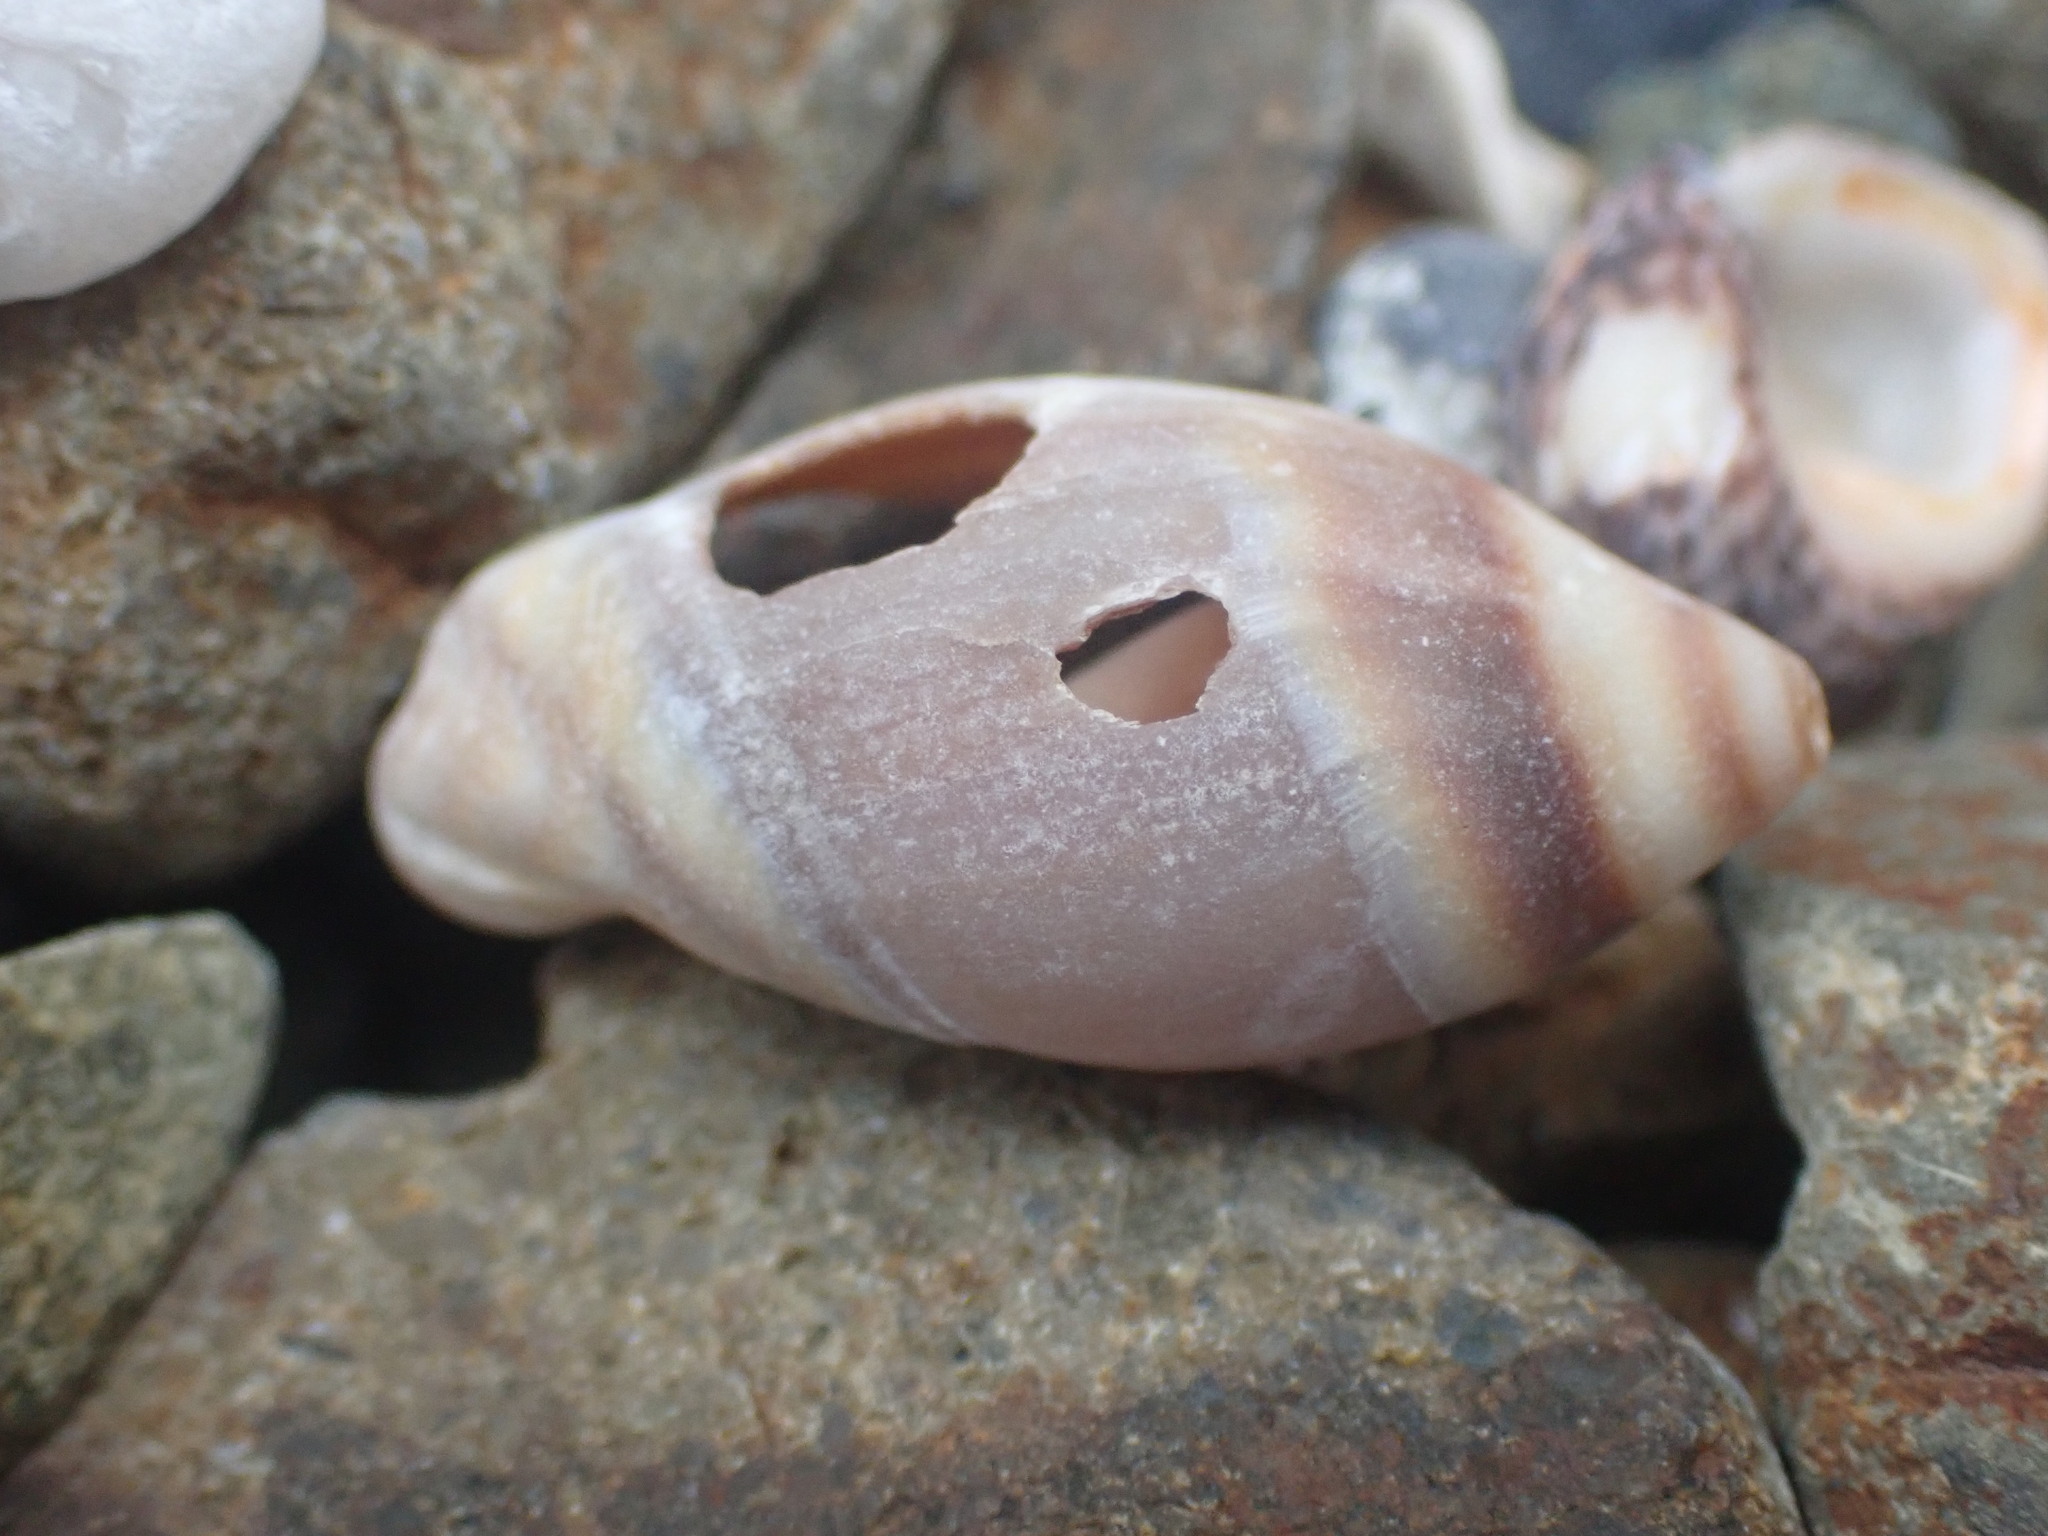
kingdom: Animalia
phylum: Mollusca
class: Gastropoda
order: Neogastropoda
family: Ancillariidae
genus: Amalda
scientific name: Amalda australis
